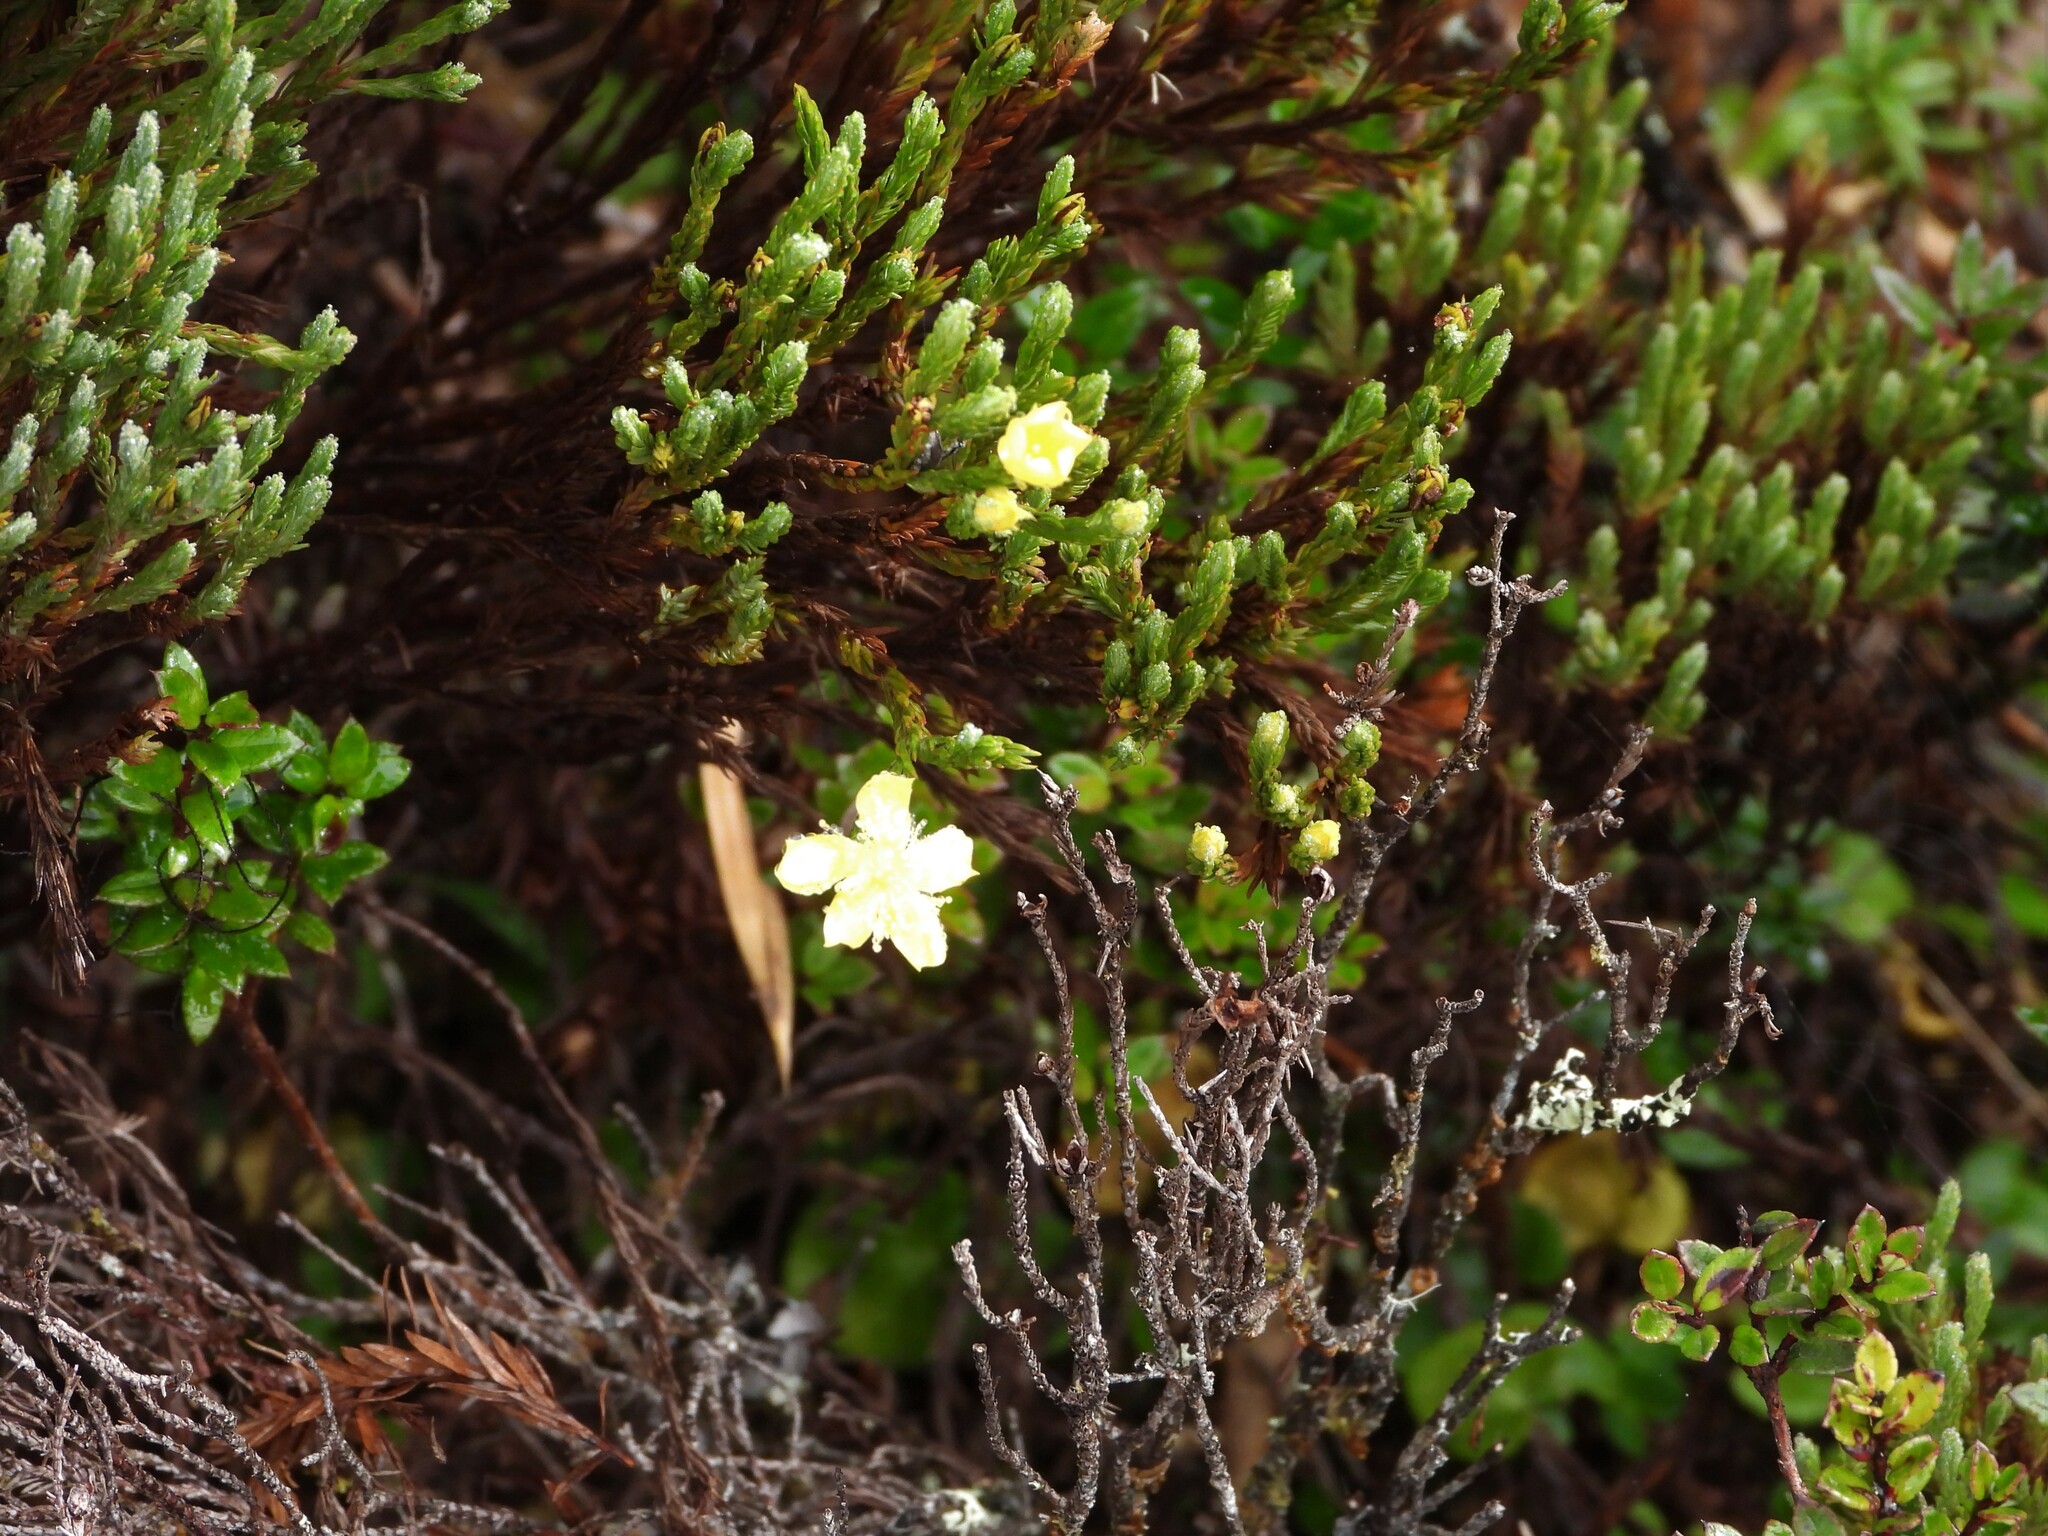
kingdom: Plantae
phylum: Tracheophyta
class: Magnoliopsida
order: Malpighiales
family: Hypericaceae
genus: Hypericum
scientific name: Hypericum costaricense
